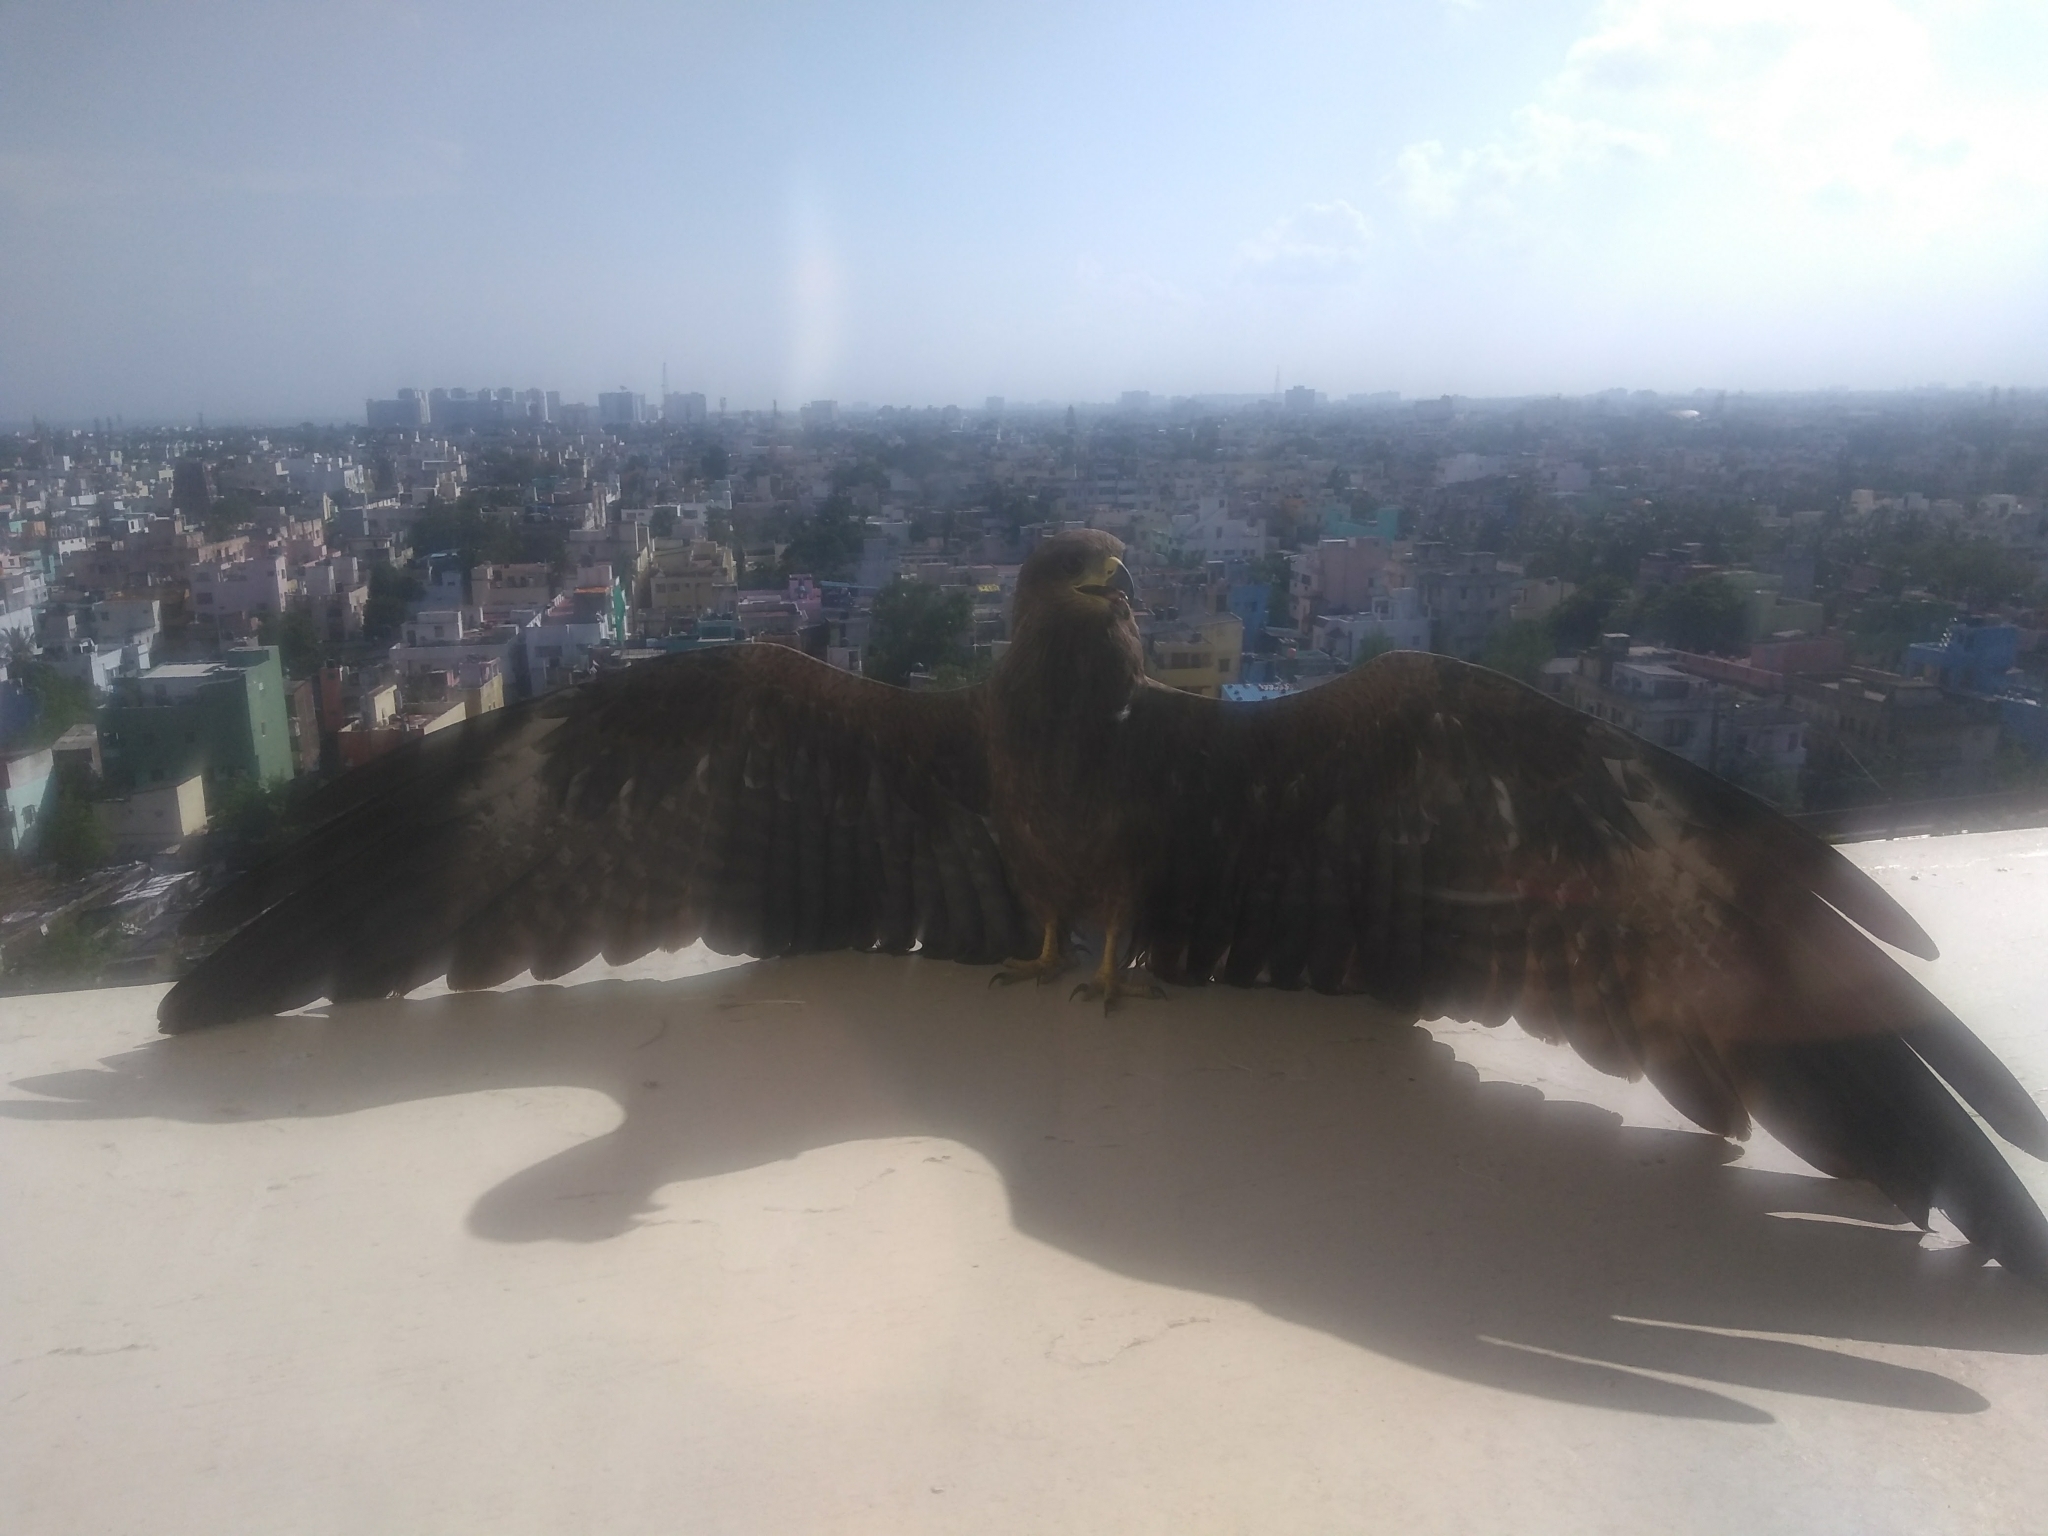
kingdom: Animalia
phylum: Chordata
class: Aves
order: Accipitriformes
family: Accipitridae
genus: Milvus
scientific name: Milvus migrans
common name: Black kite
